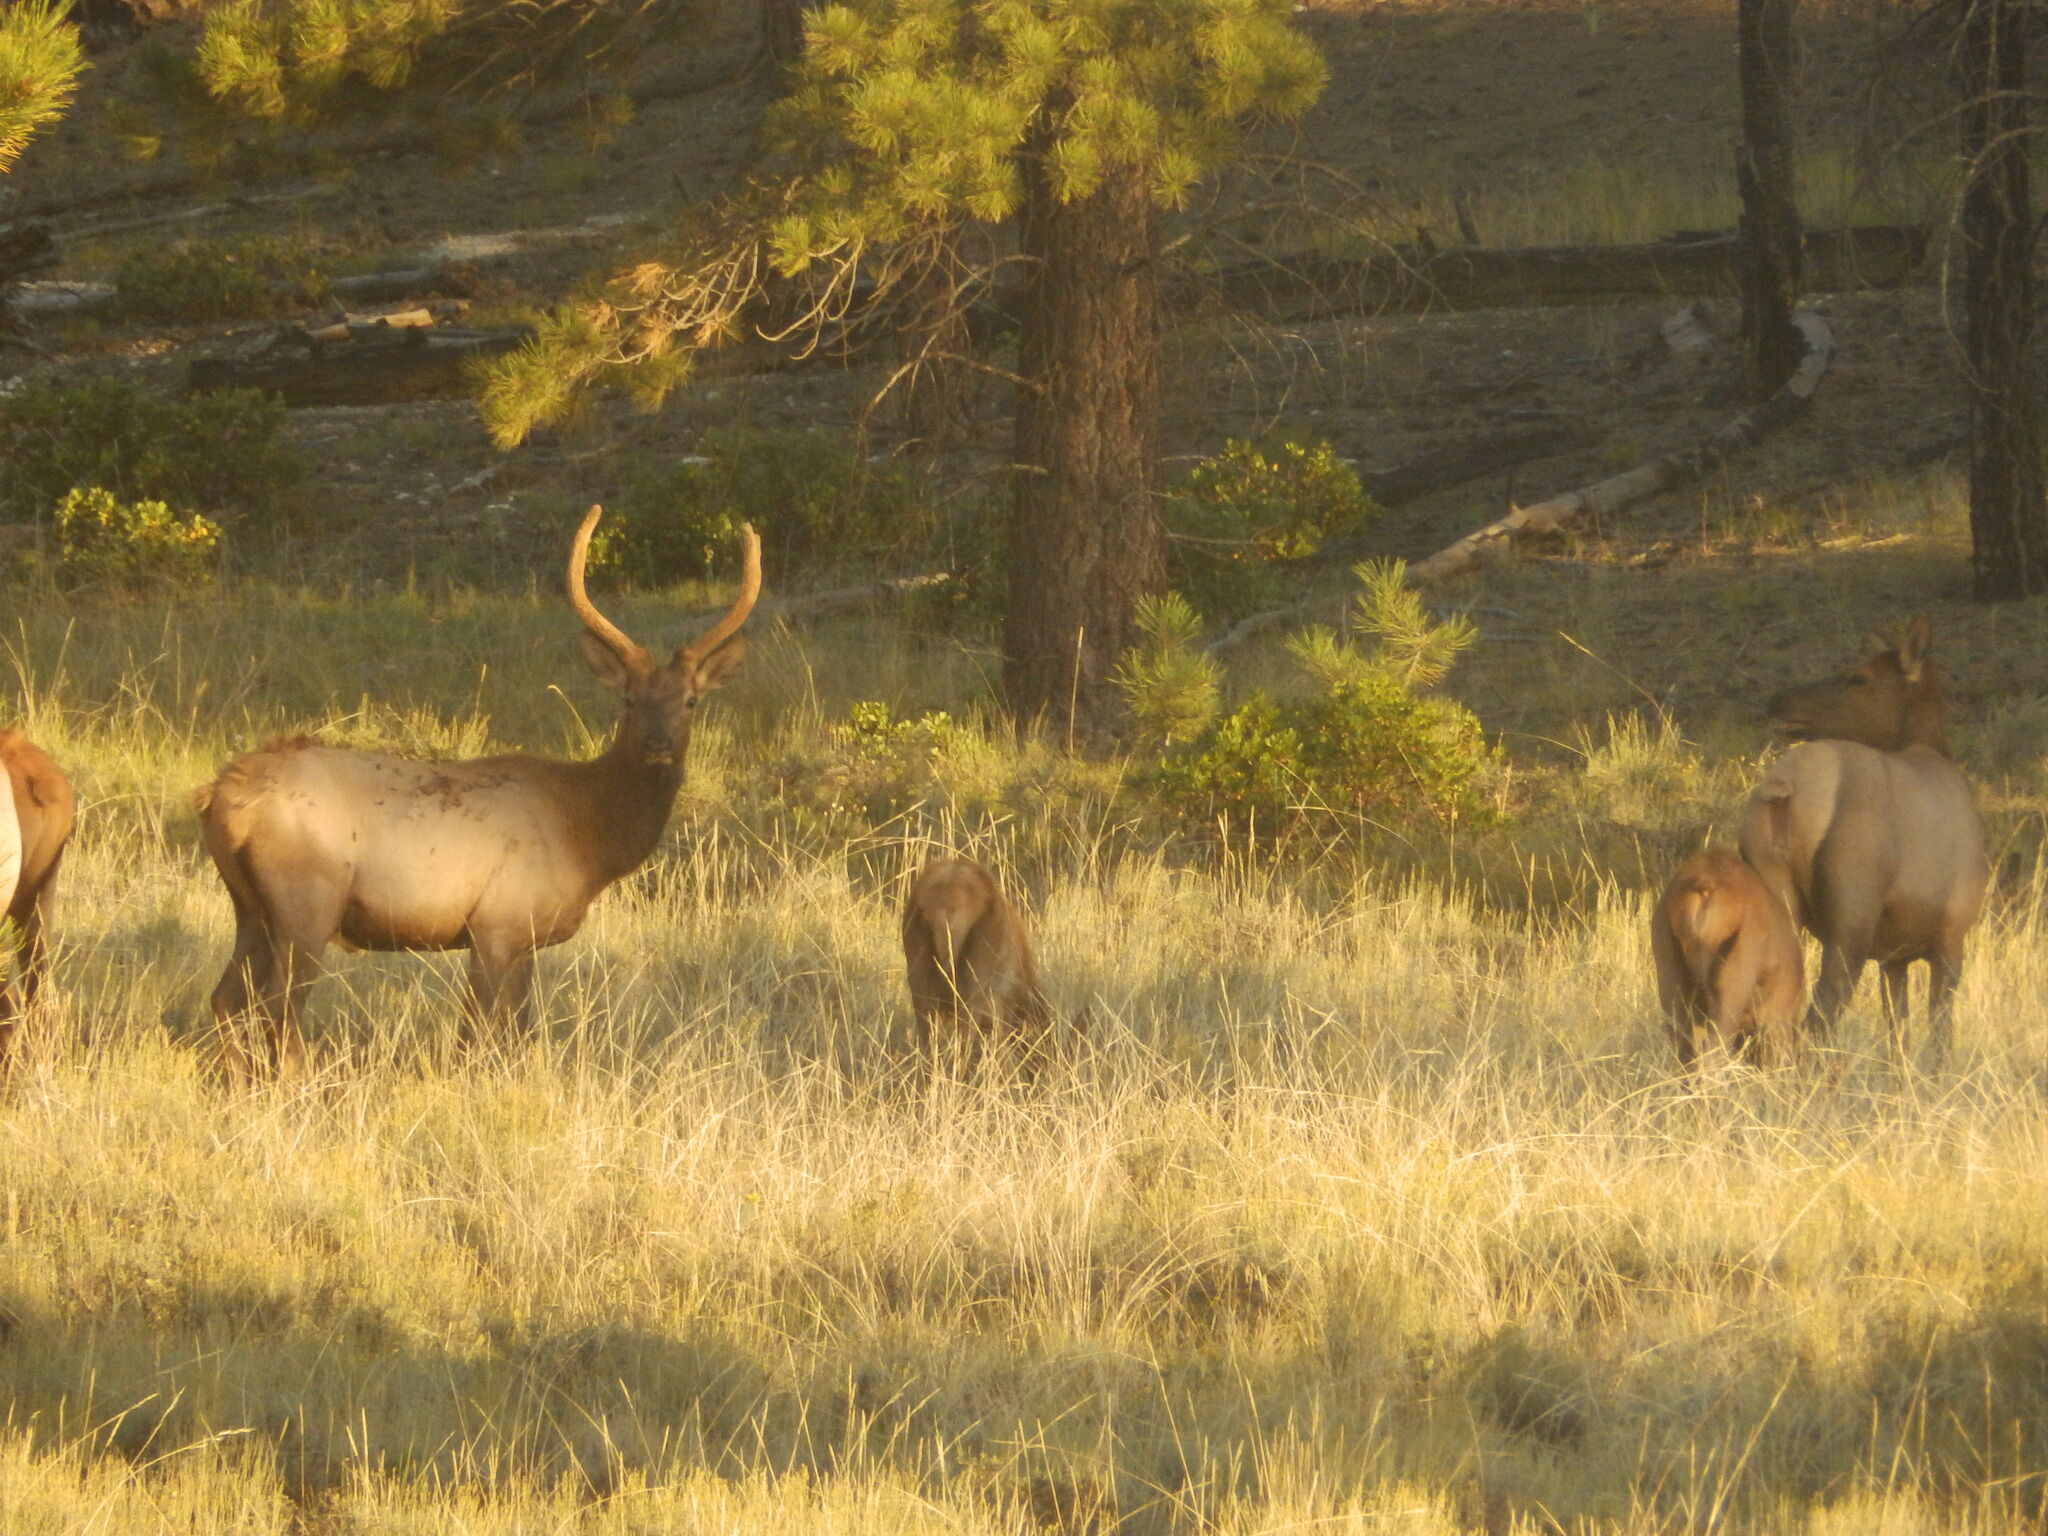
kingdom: Animalia
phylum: Chordata
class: Mammalia
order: Artiodactyla
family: Cervidae
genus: Cervus
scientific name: Cervus elaphus
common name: Red deer
